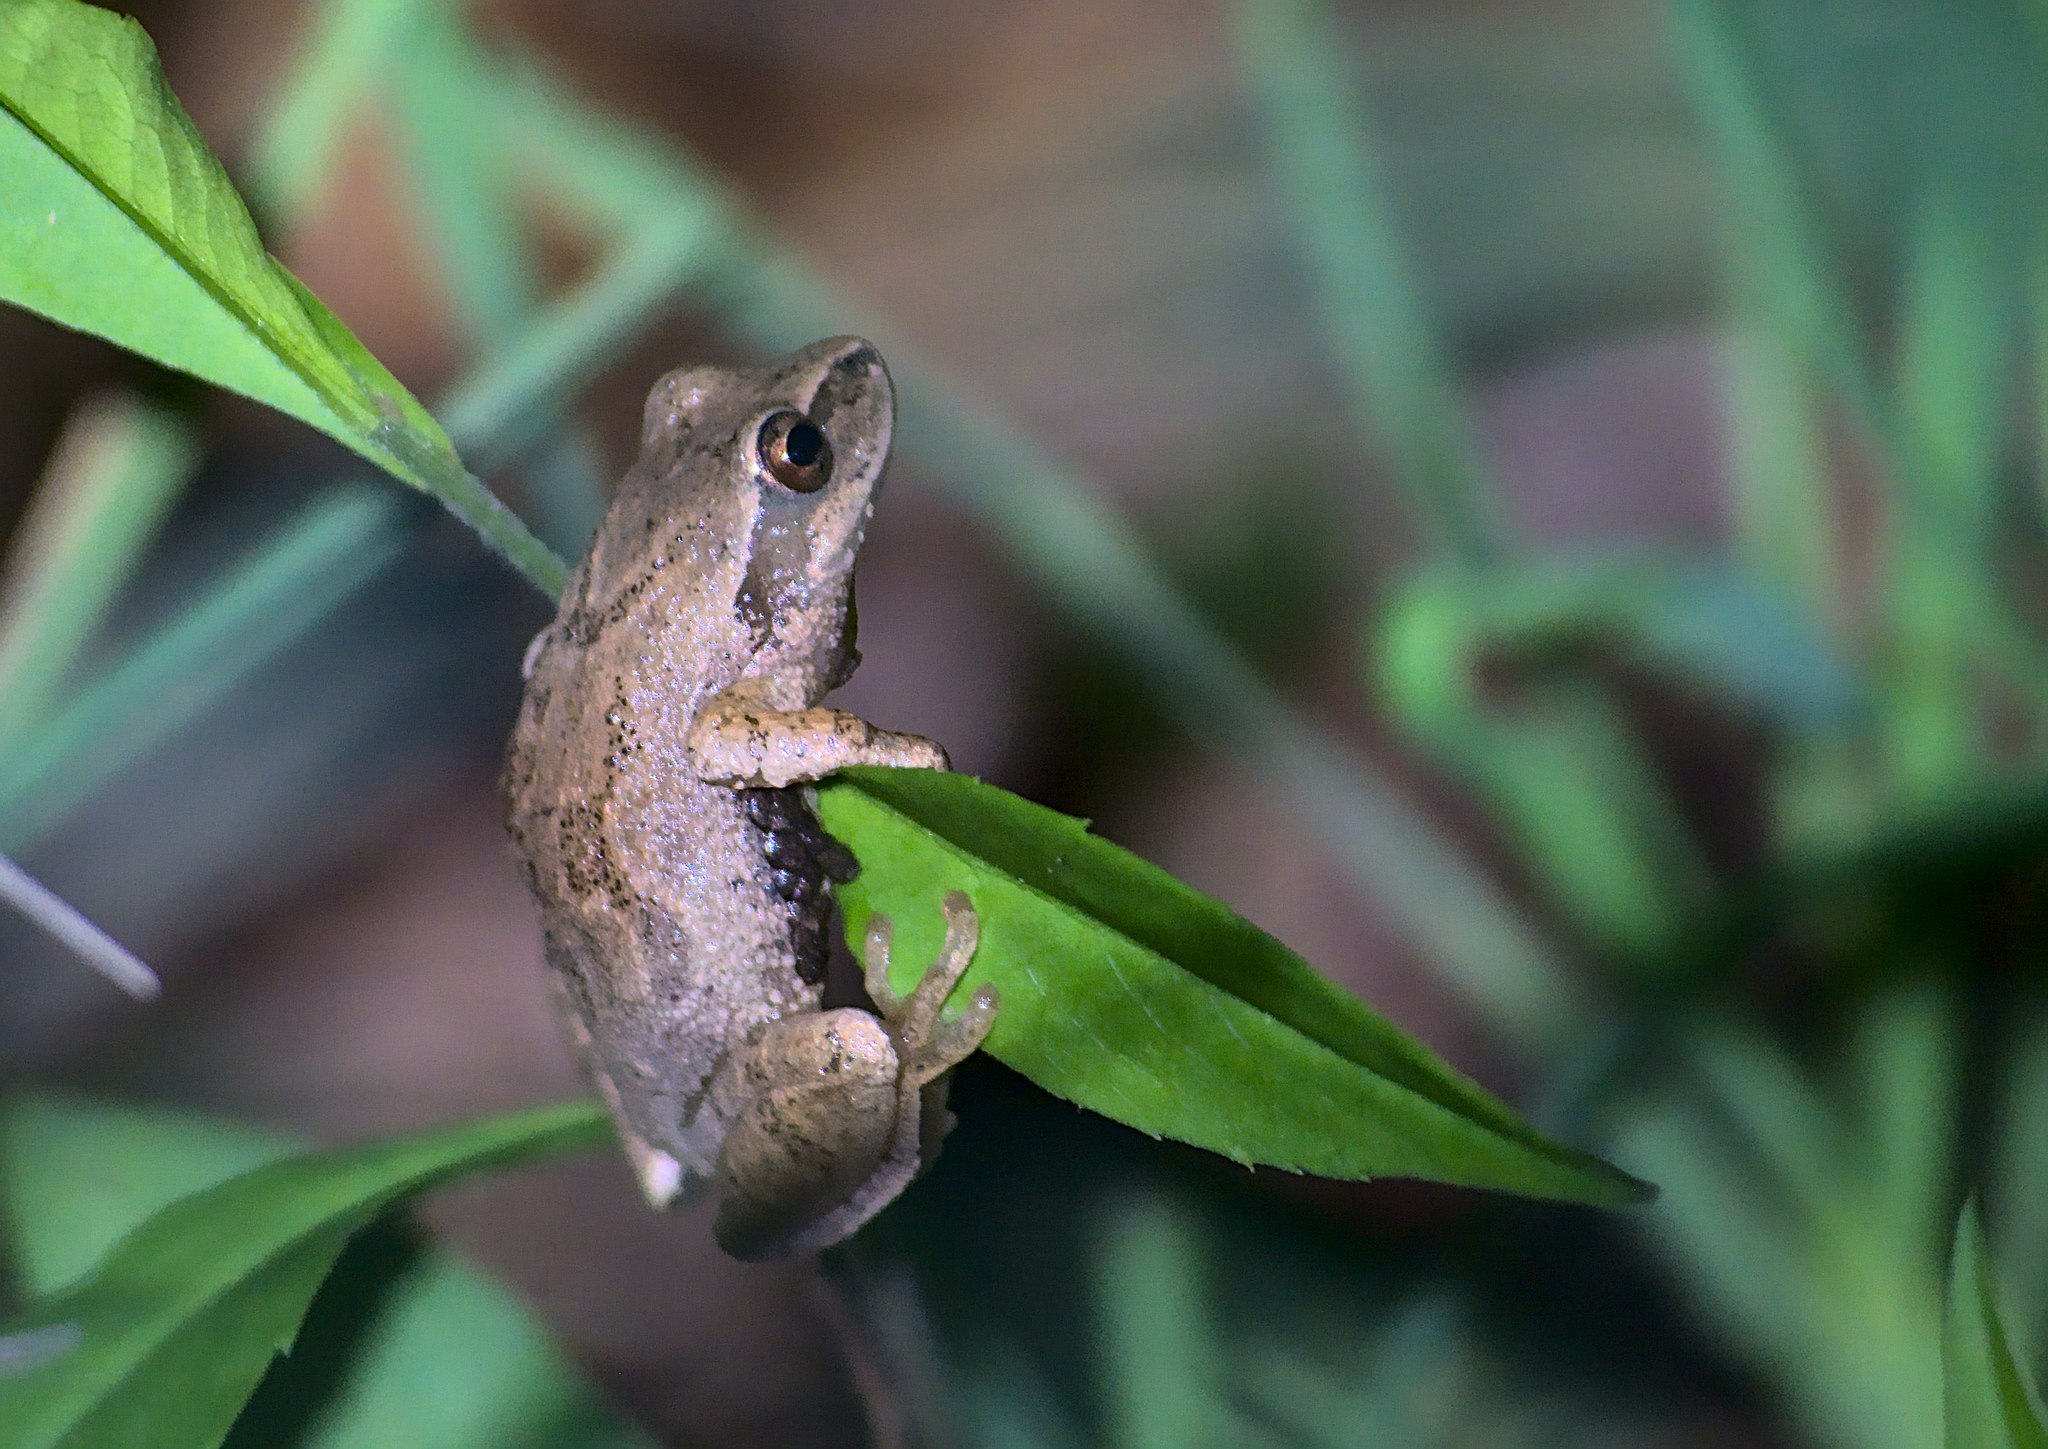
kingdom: Animalia
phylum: Chordata
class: Amphibia
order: Anura
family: Hylidae
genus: Pseudacris
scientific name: Pseudacris crucifer
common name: Spring peeper
